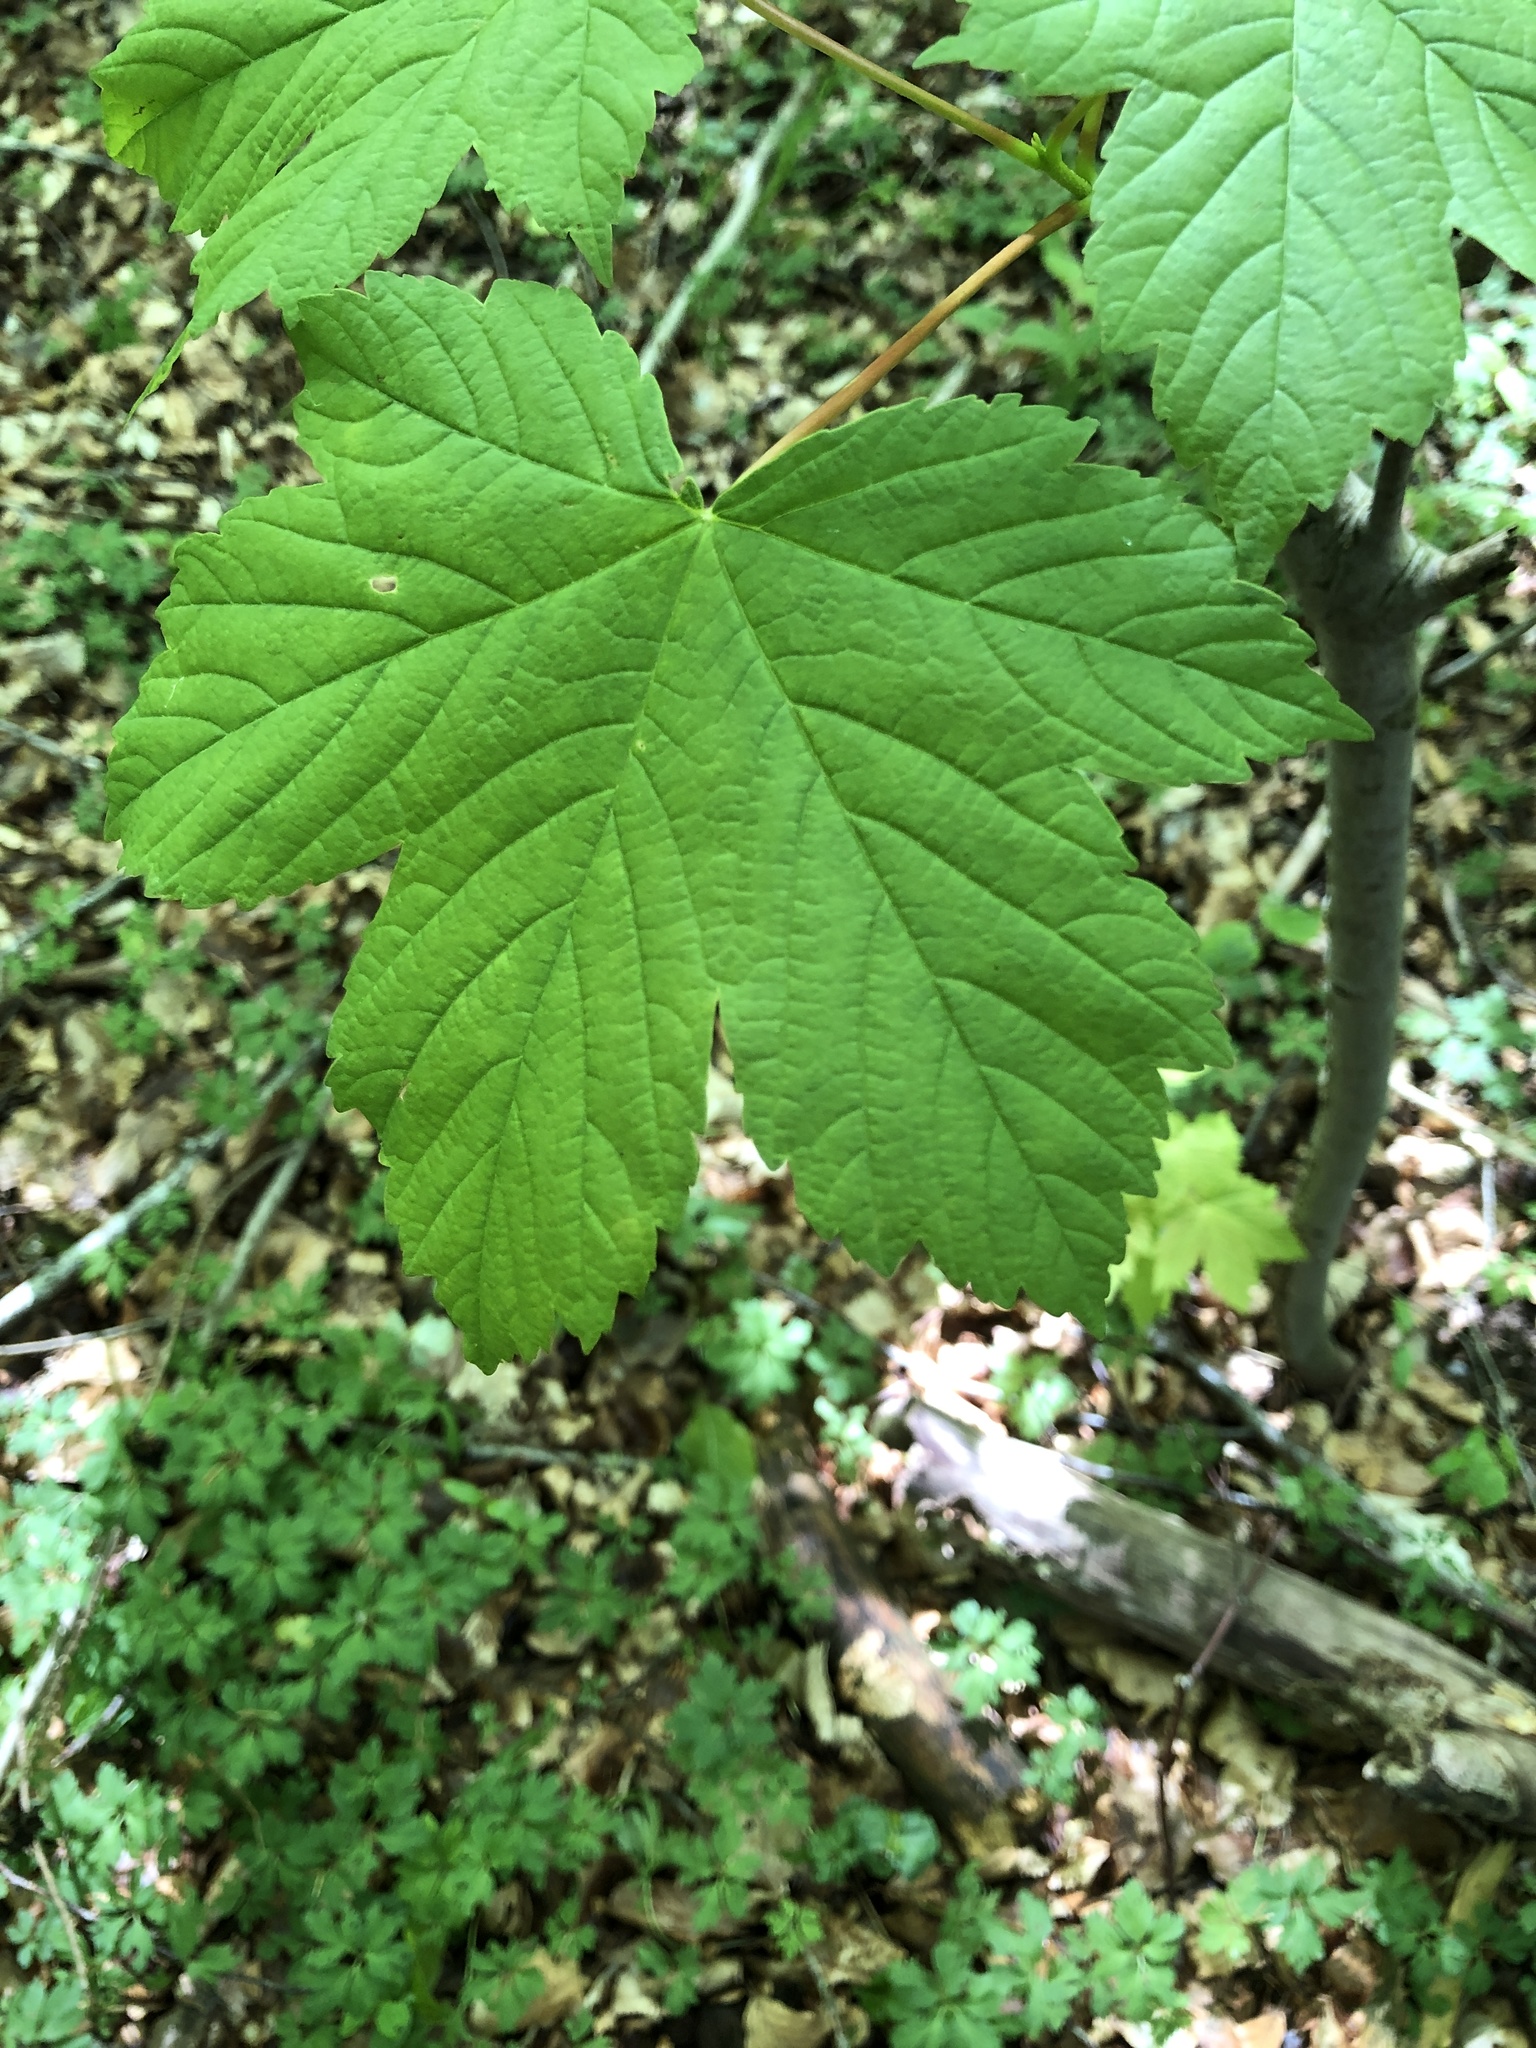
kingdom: Plantae
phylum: Tracheophyta
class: Magnoliopsida
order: Sapindales
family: Sapindaceae
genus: Acer
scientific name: Acer pseudoplatanus
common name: Sycamore
